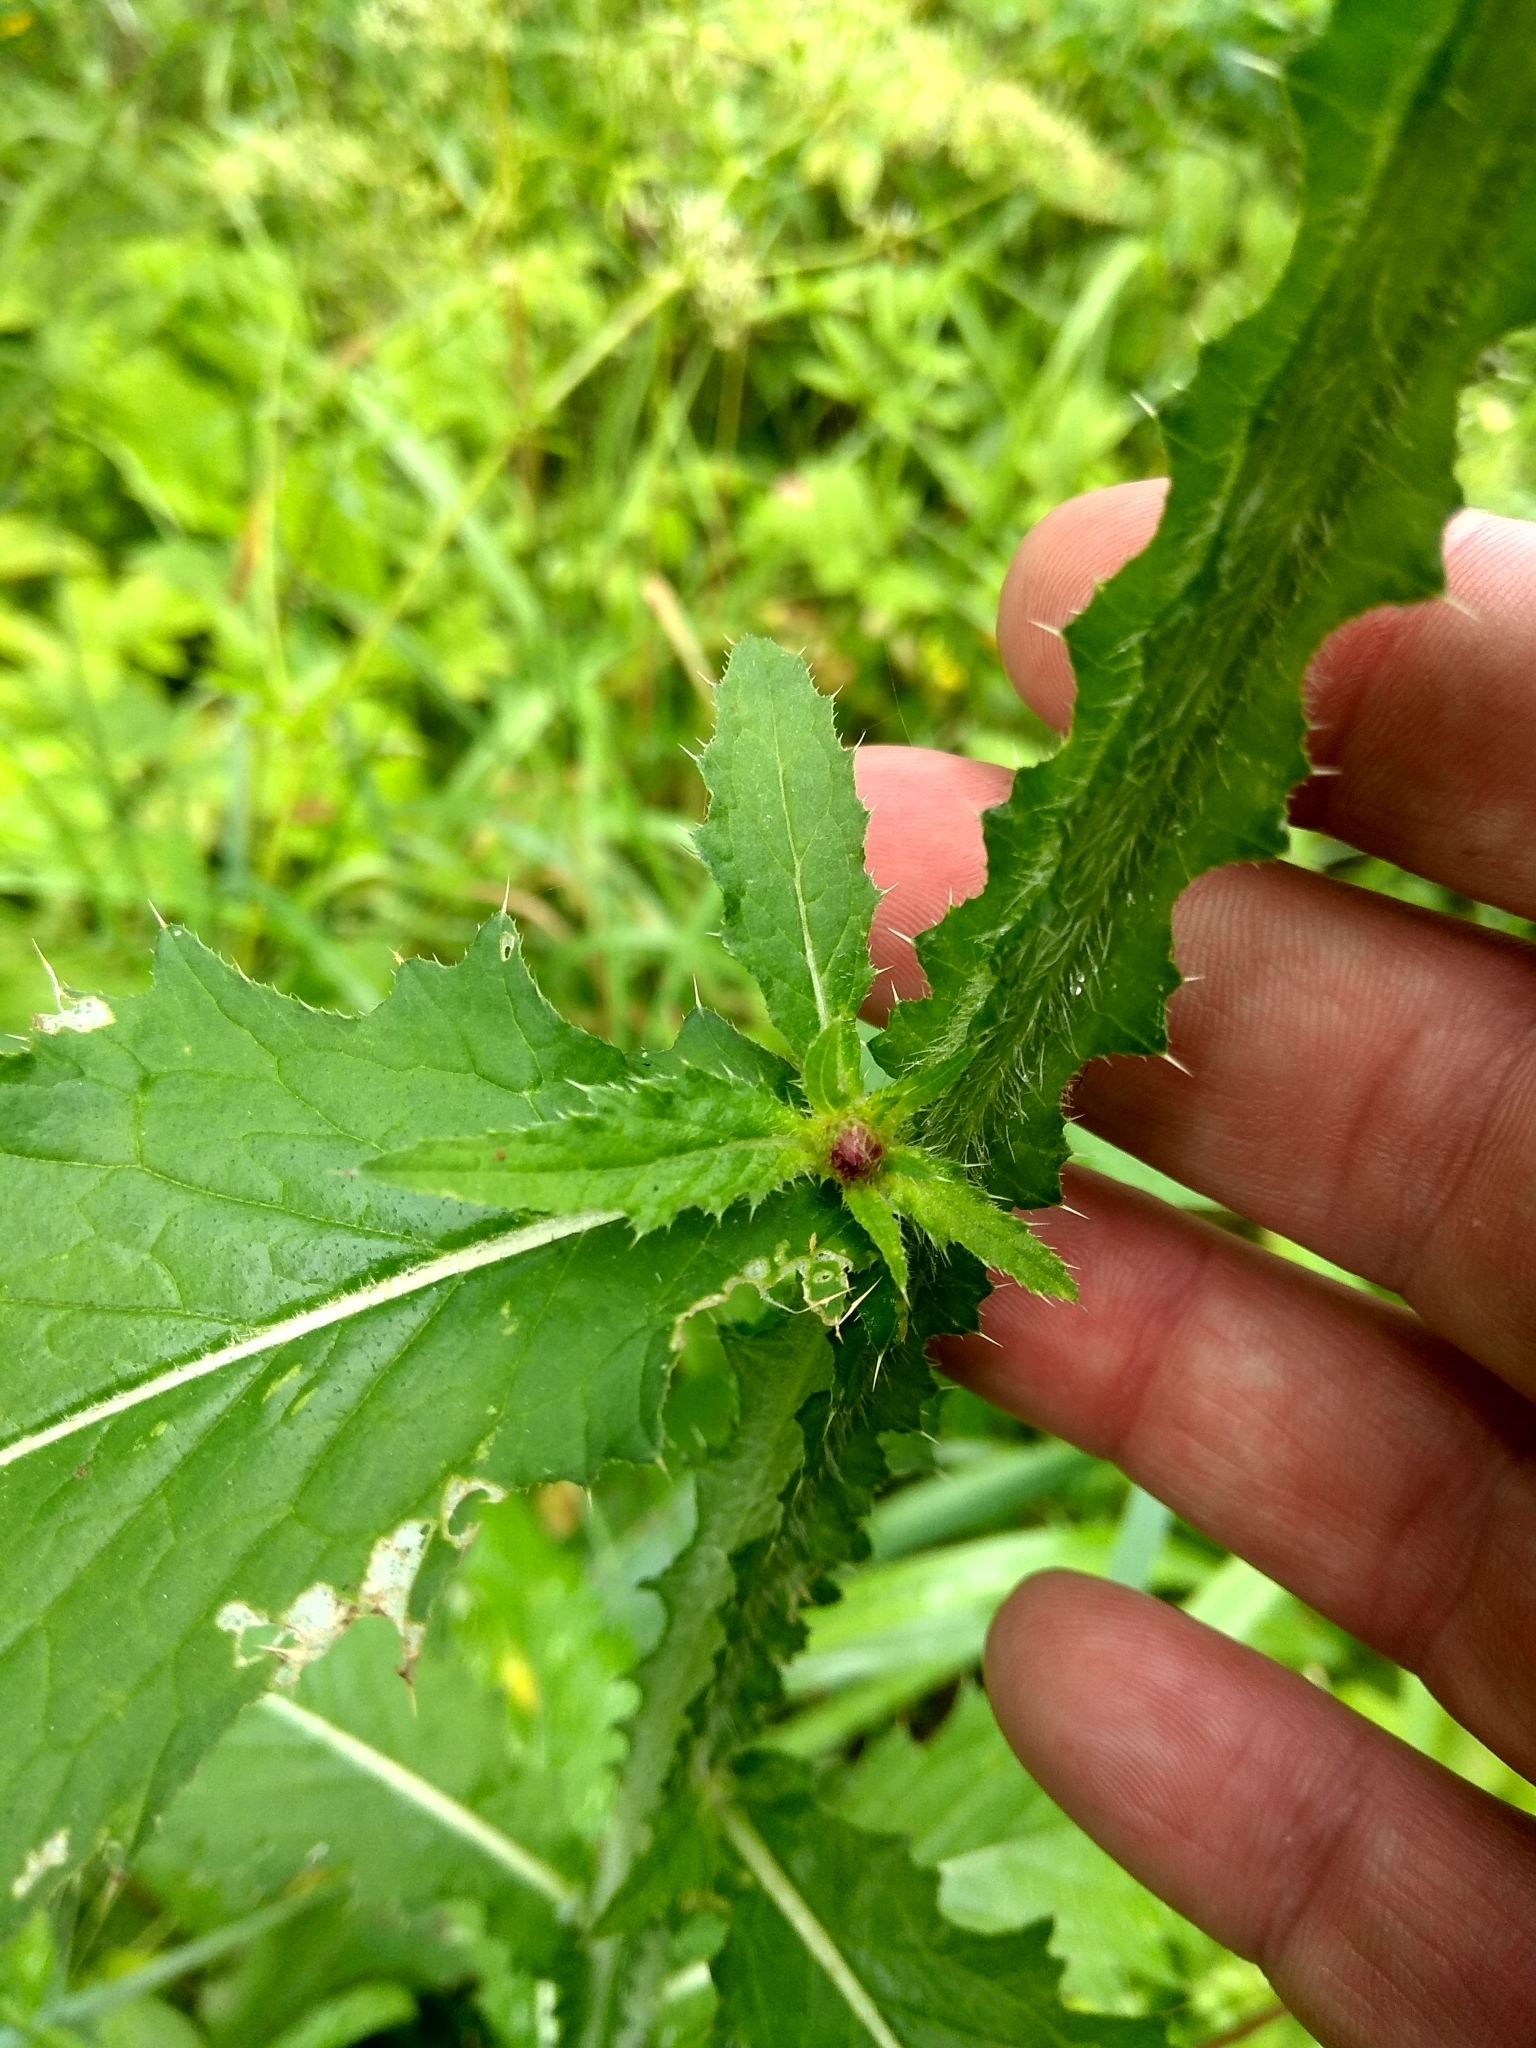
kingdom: Plantae
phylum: Tracheophyta
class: Magnoliopsida
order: Asterales
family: Asteraceae
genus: Carduus
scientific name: Carduus crispus
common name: Welted thistle
